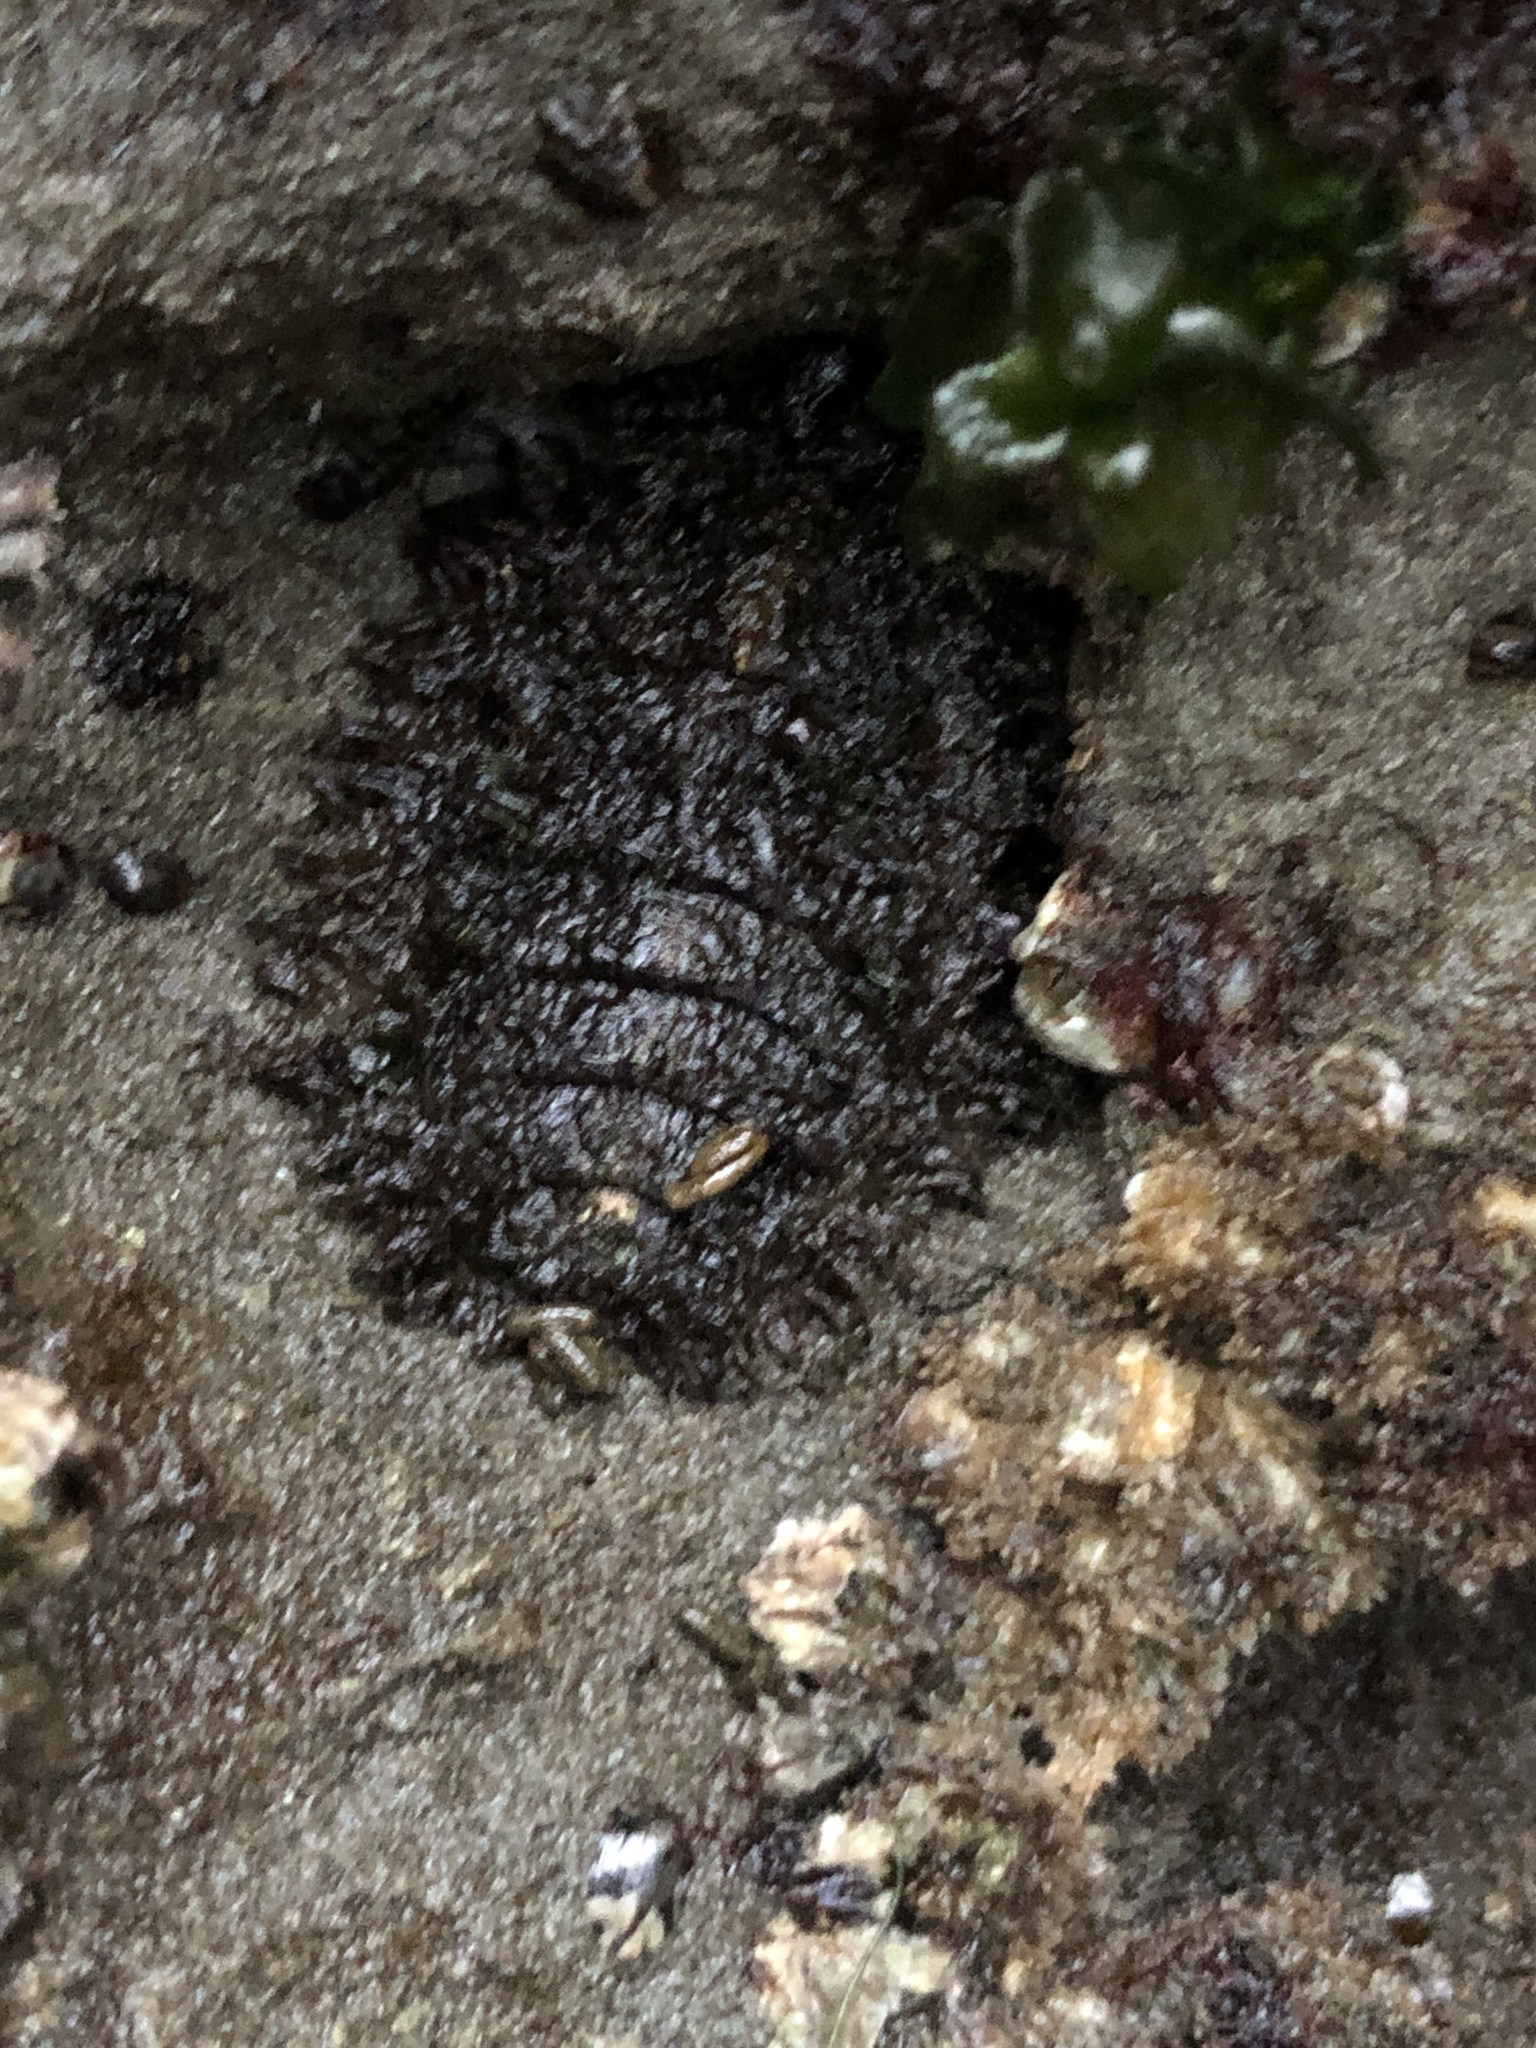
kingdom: Animalia
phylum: Mollusca
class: Polyplacophora
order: Chitonida
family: Mopaliidae
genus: Mopalia
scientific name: Mopalia muscosa
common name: Mossy chiton
